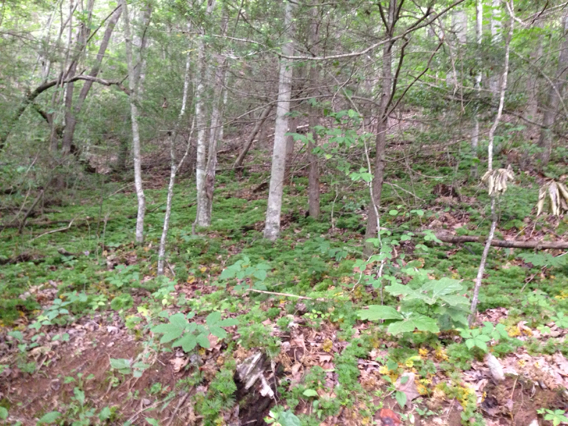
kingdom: Plantae
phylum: Tracheophyta
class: Lycopodiopsida
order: Lycopodiales
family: Lycopodiaceae
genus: Diphasiastrum
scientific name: Diphasiastrum digitatum
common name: Southern running-pine
